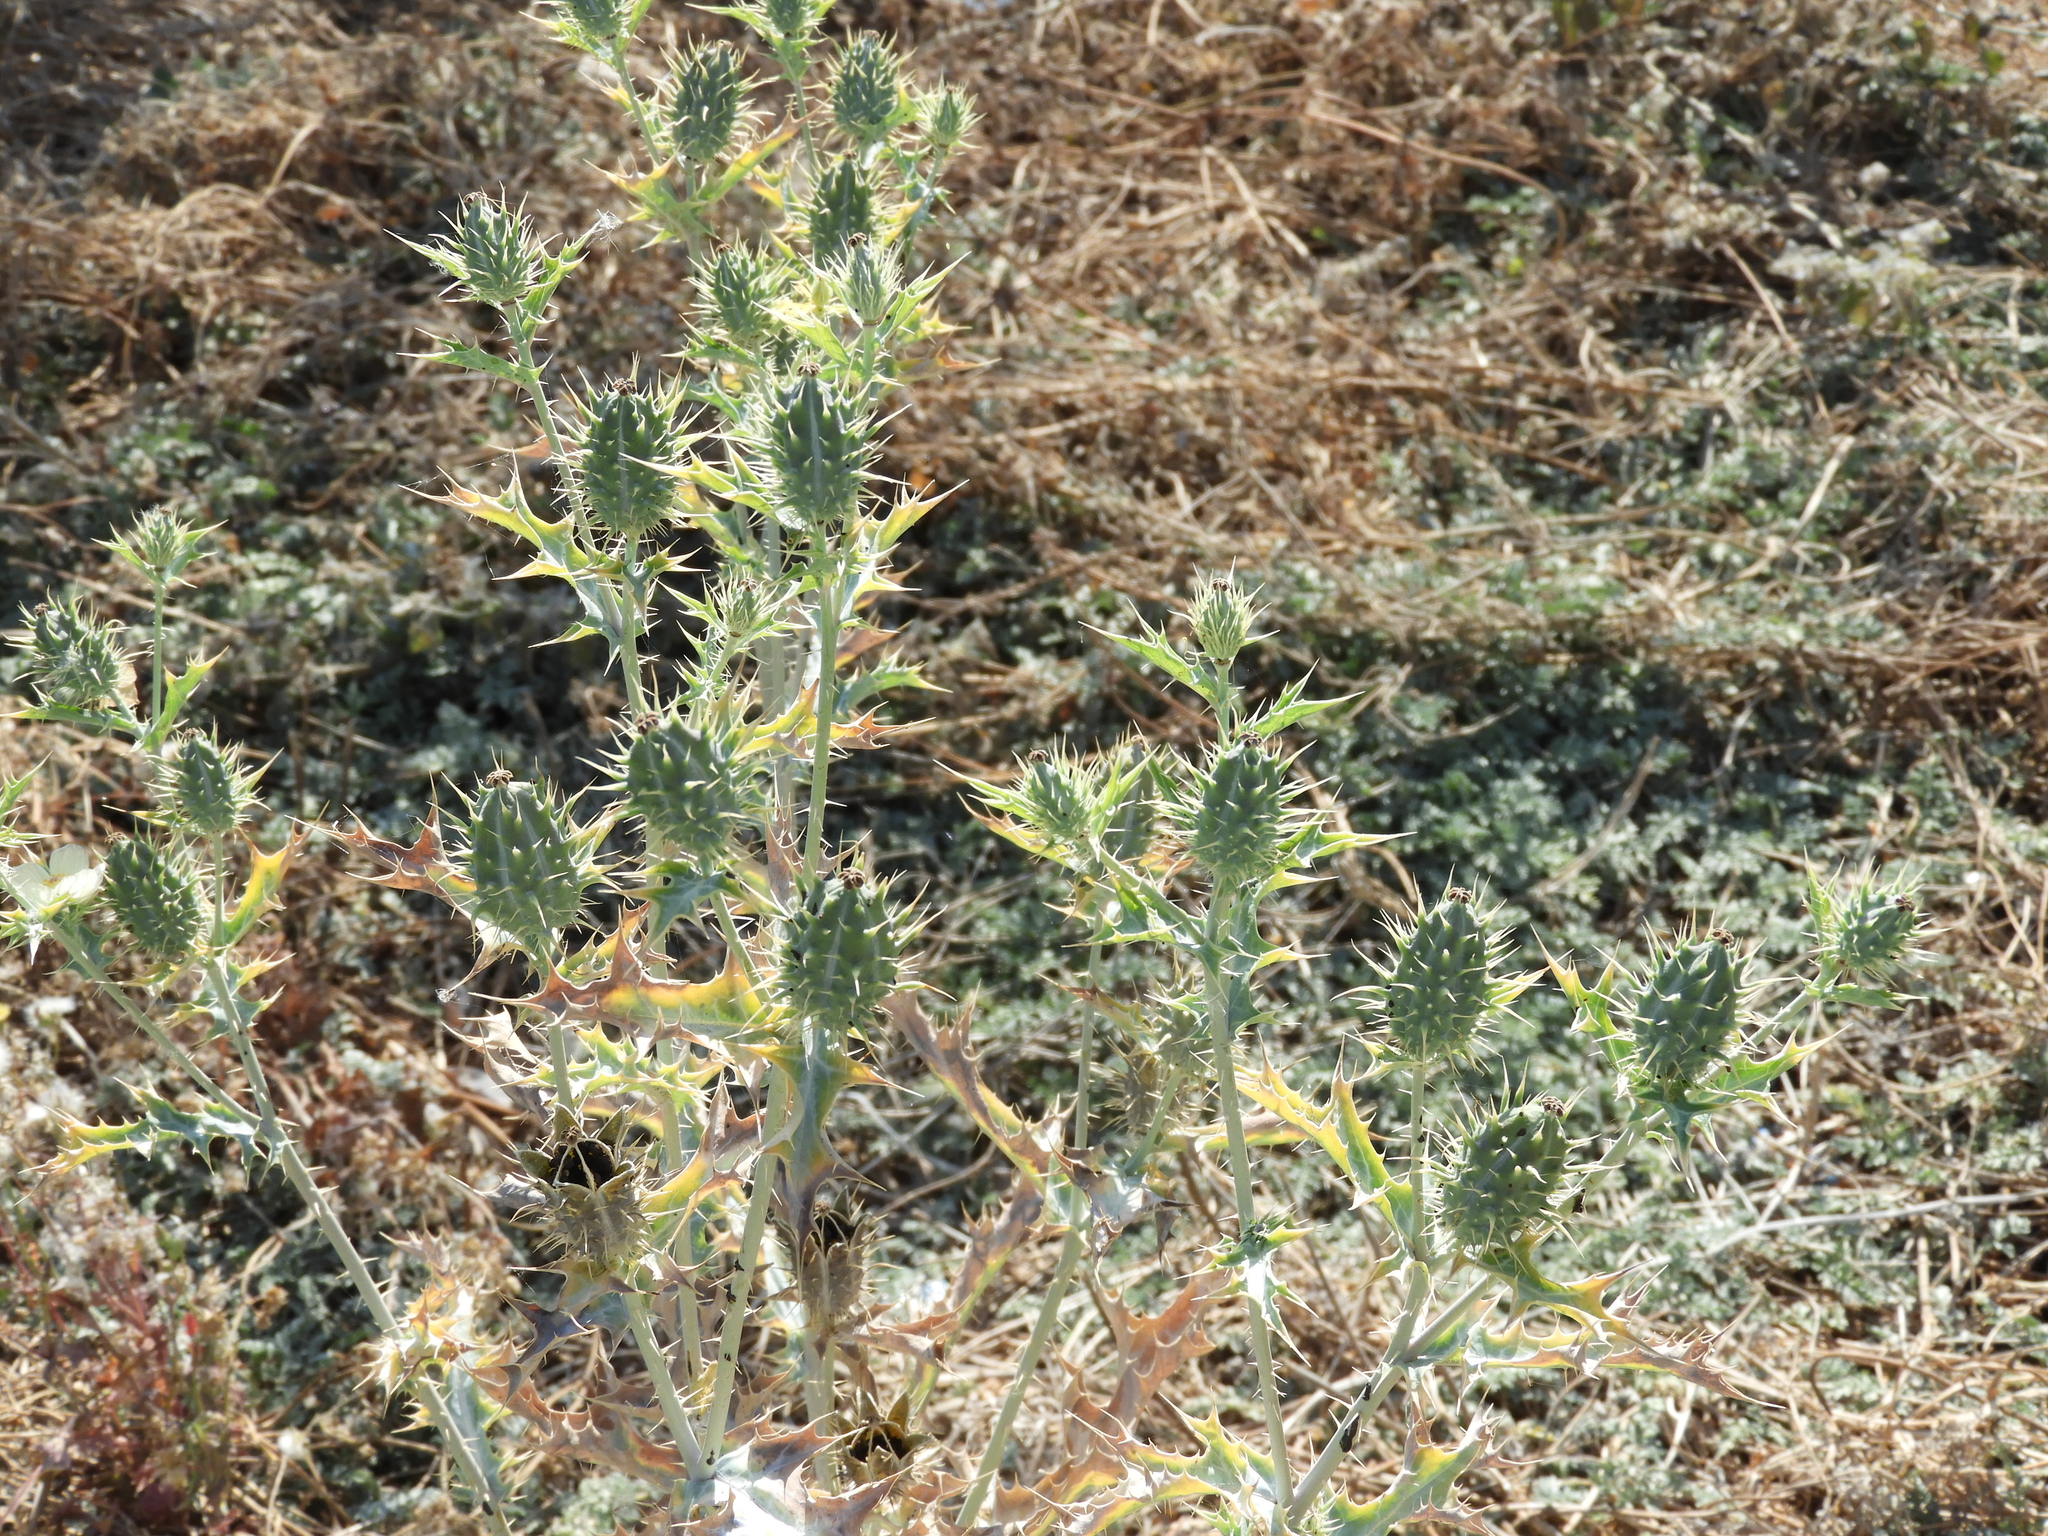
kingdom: Plantae
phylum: Tracheophyta
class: Magnoliopsida
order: Ranunculales
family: Papaveraceae
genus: Argemone
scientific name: Argemone ochroleuca
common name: White-flower mexican-poppy
